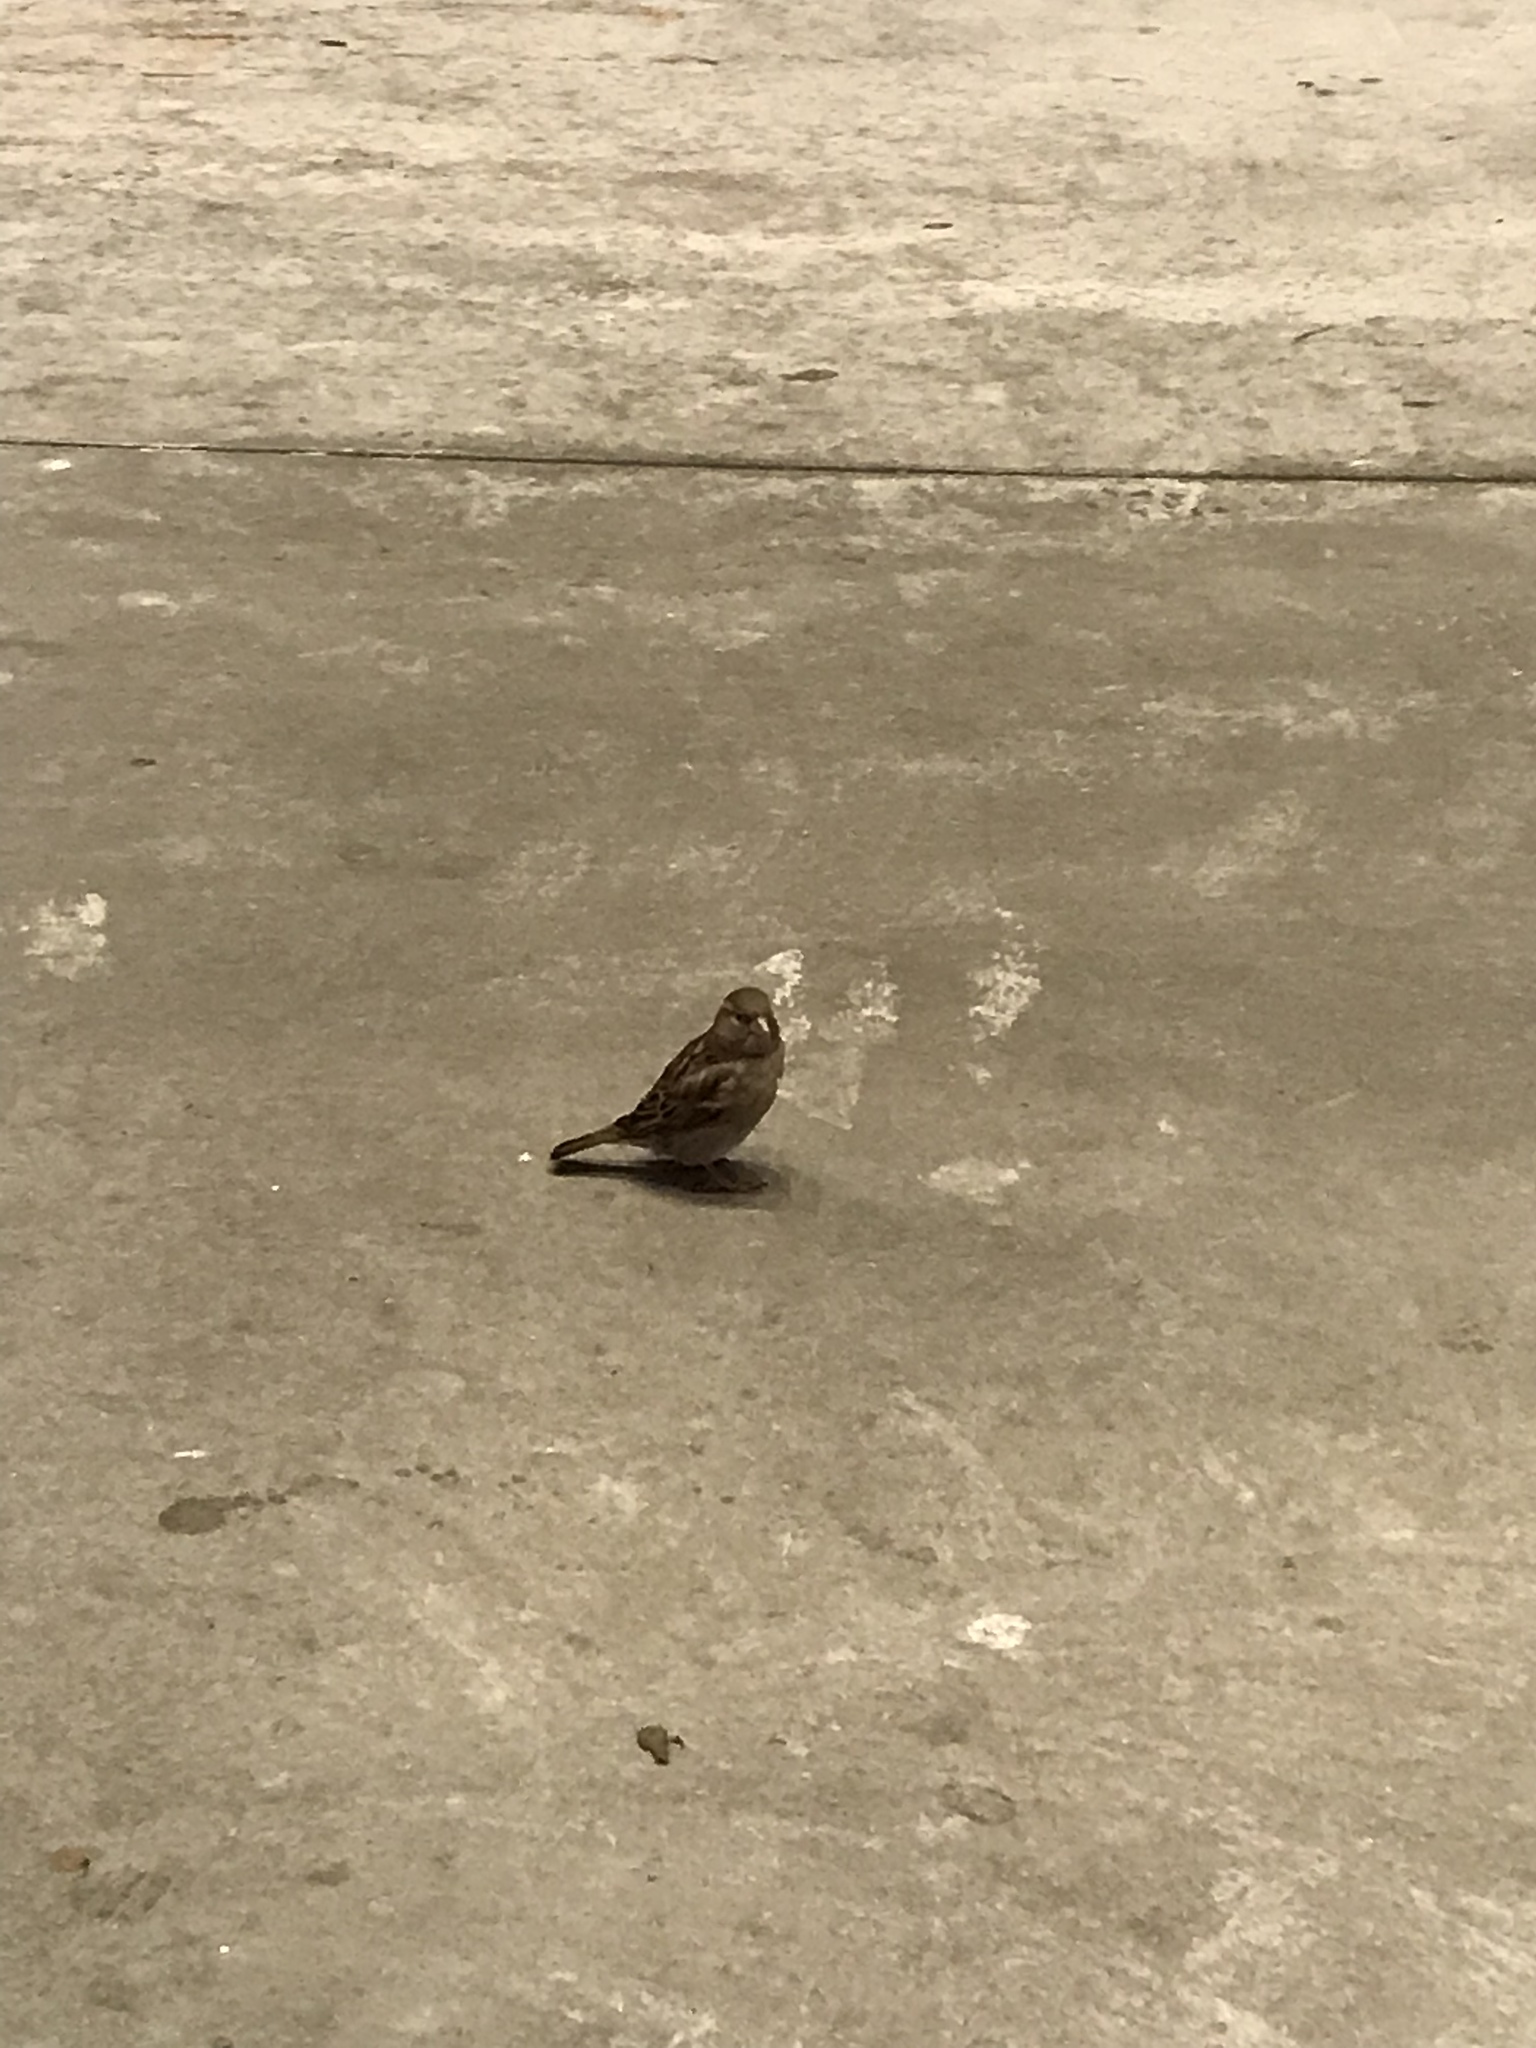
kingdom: Animalia
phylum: Chordata
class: Aves
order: Passeriformes
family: Passeridae
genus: Passer
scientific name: Passer domesticus
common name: House sparrow
